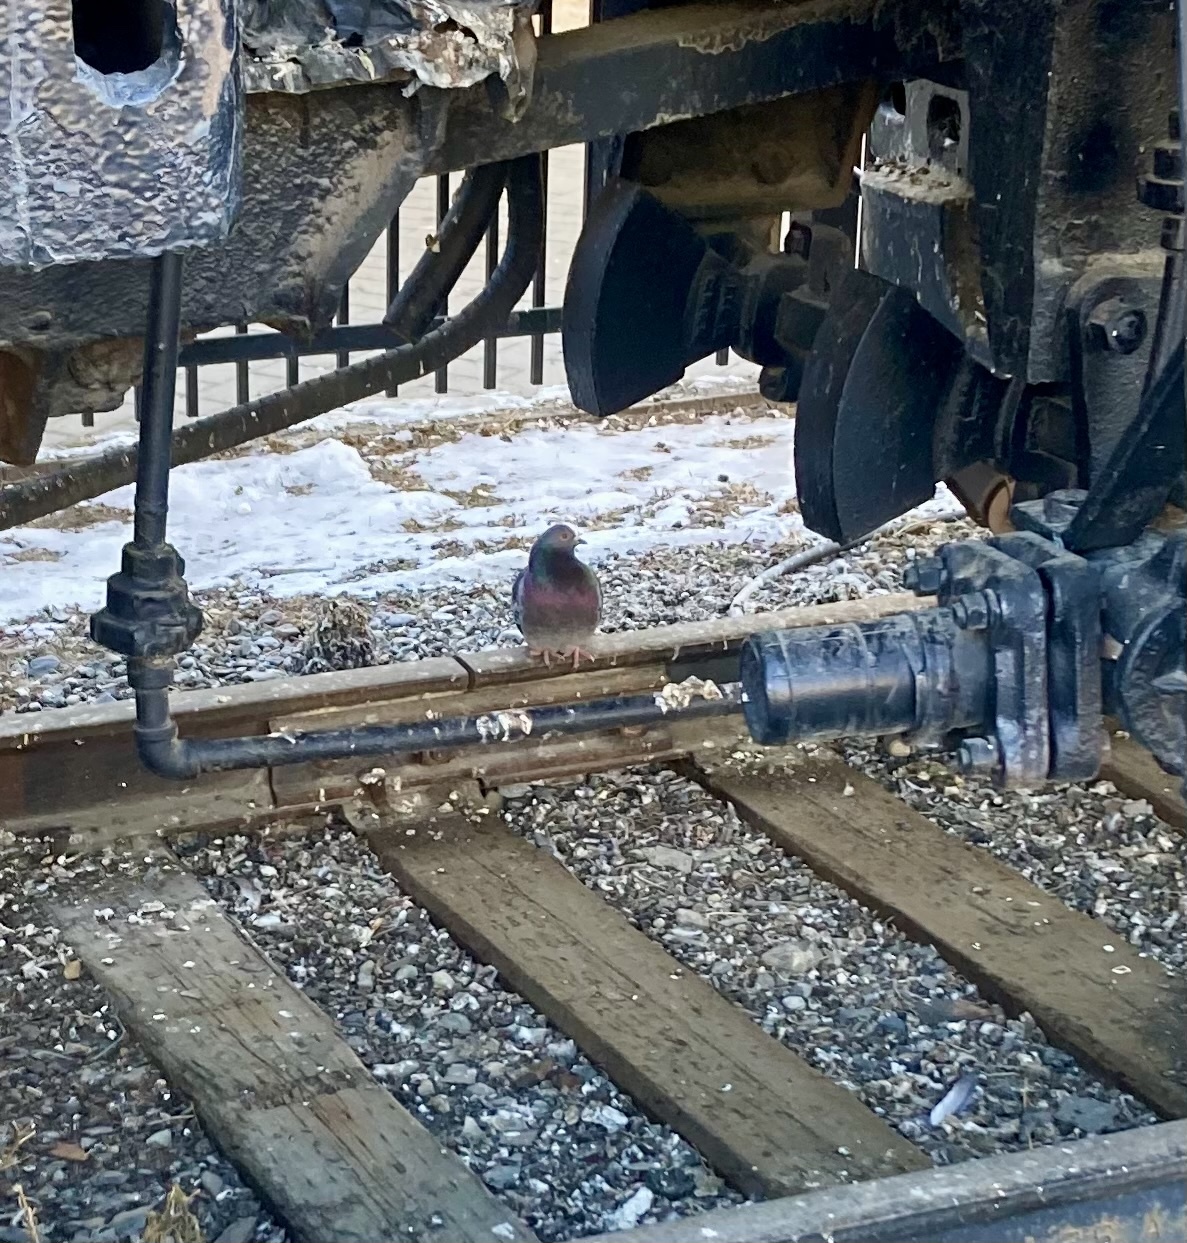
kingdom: Animalia
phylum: Chordata
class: Aves
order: Columbiformes
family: Columbidae
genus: Columba
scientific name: Columba livia
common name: Rock pigeon
